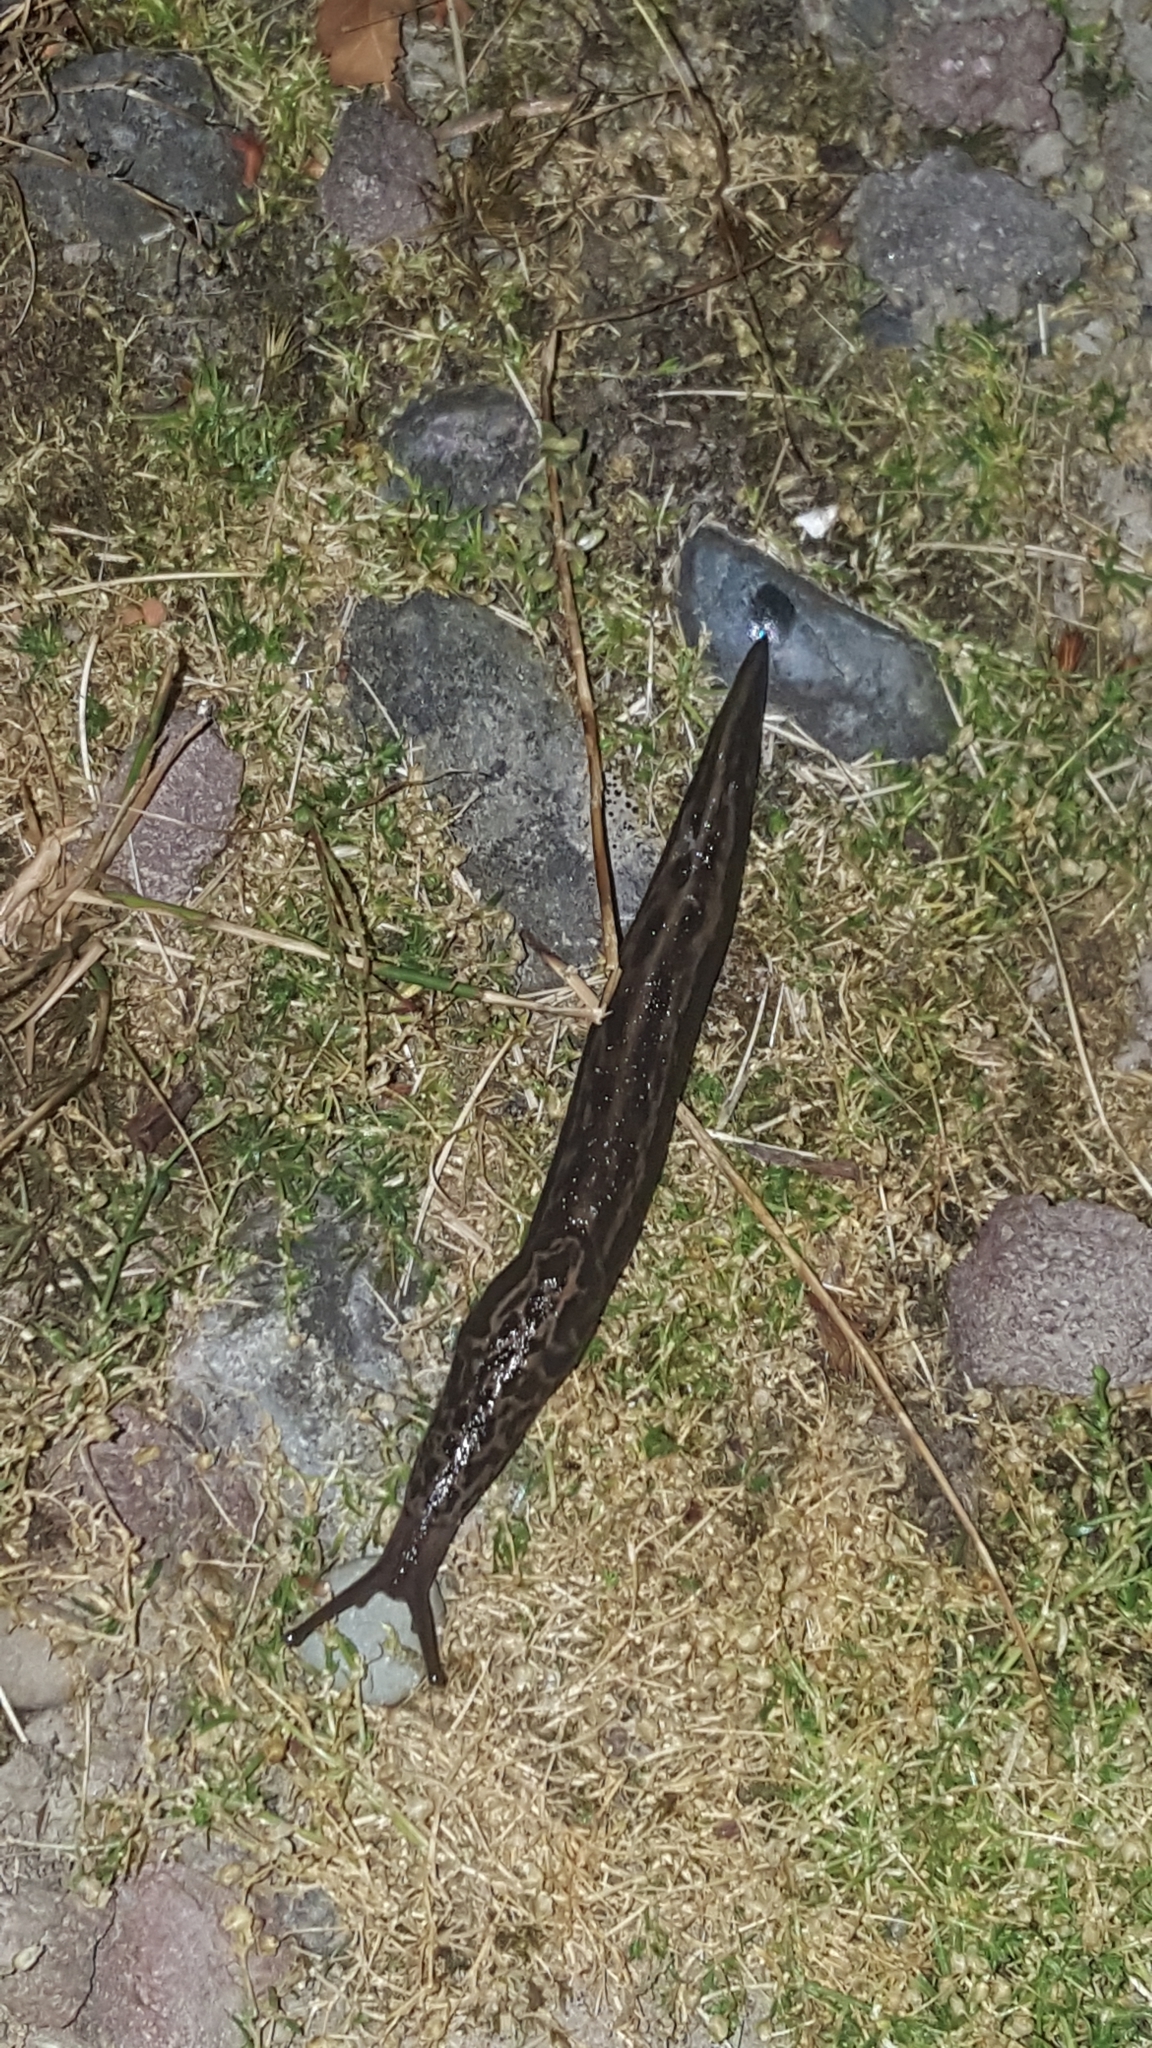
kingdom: Animalia
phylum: Mollusca
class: Gastropoda
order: Stylommatophora
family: Limacidae
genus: Limax
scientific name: Limax maximus
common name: Great grey slug
